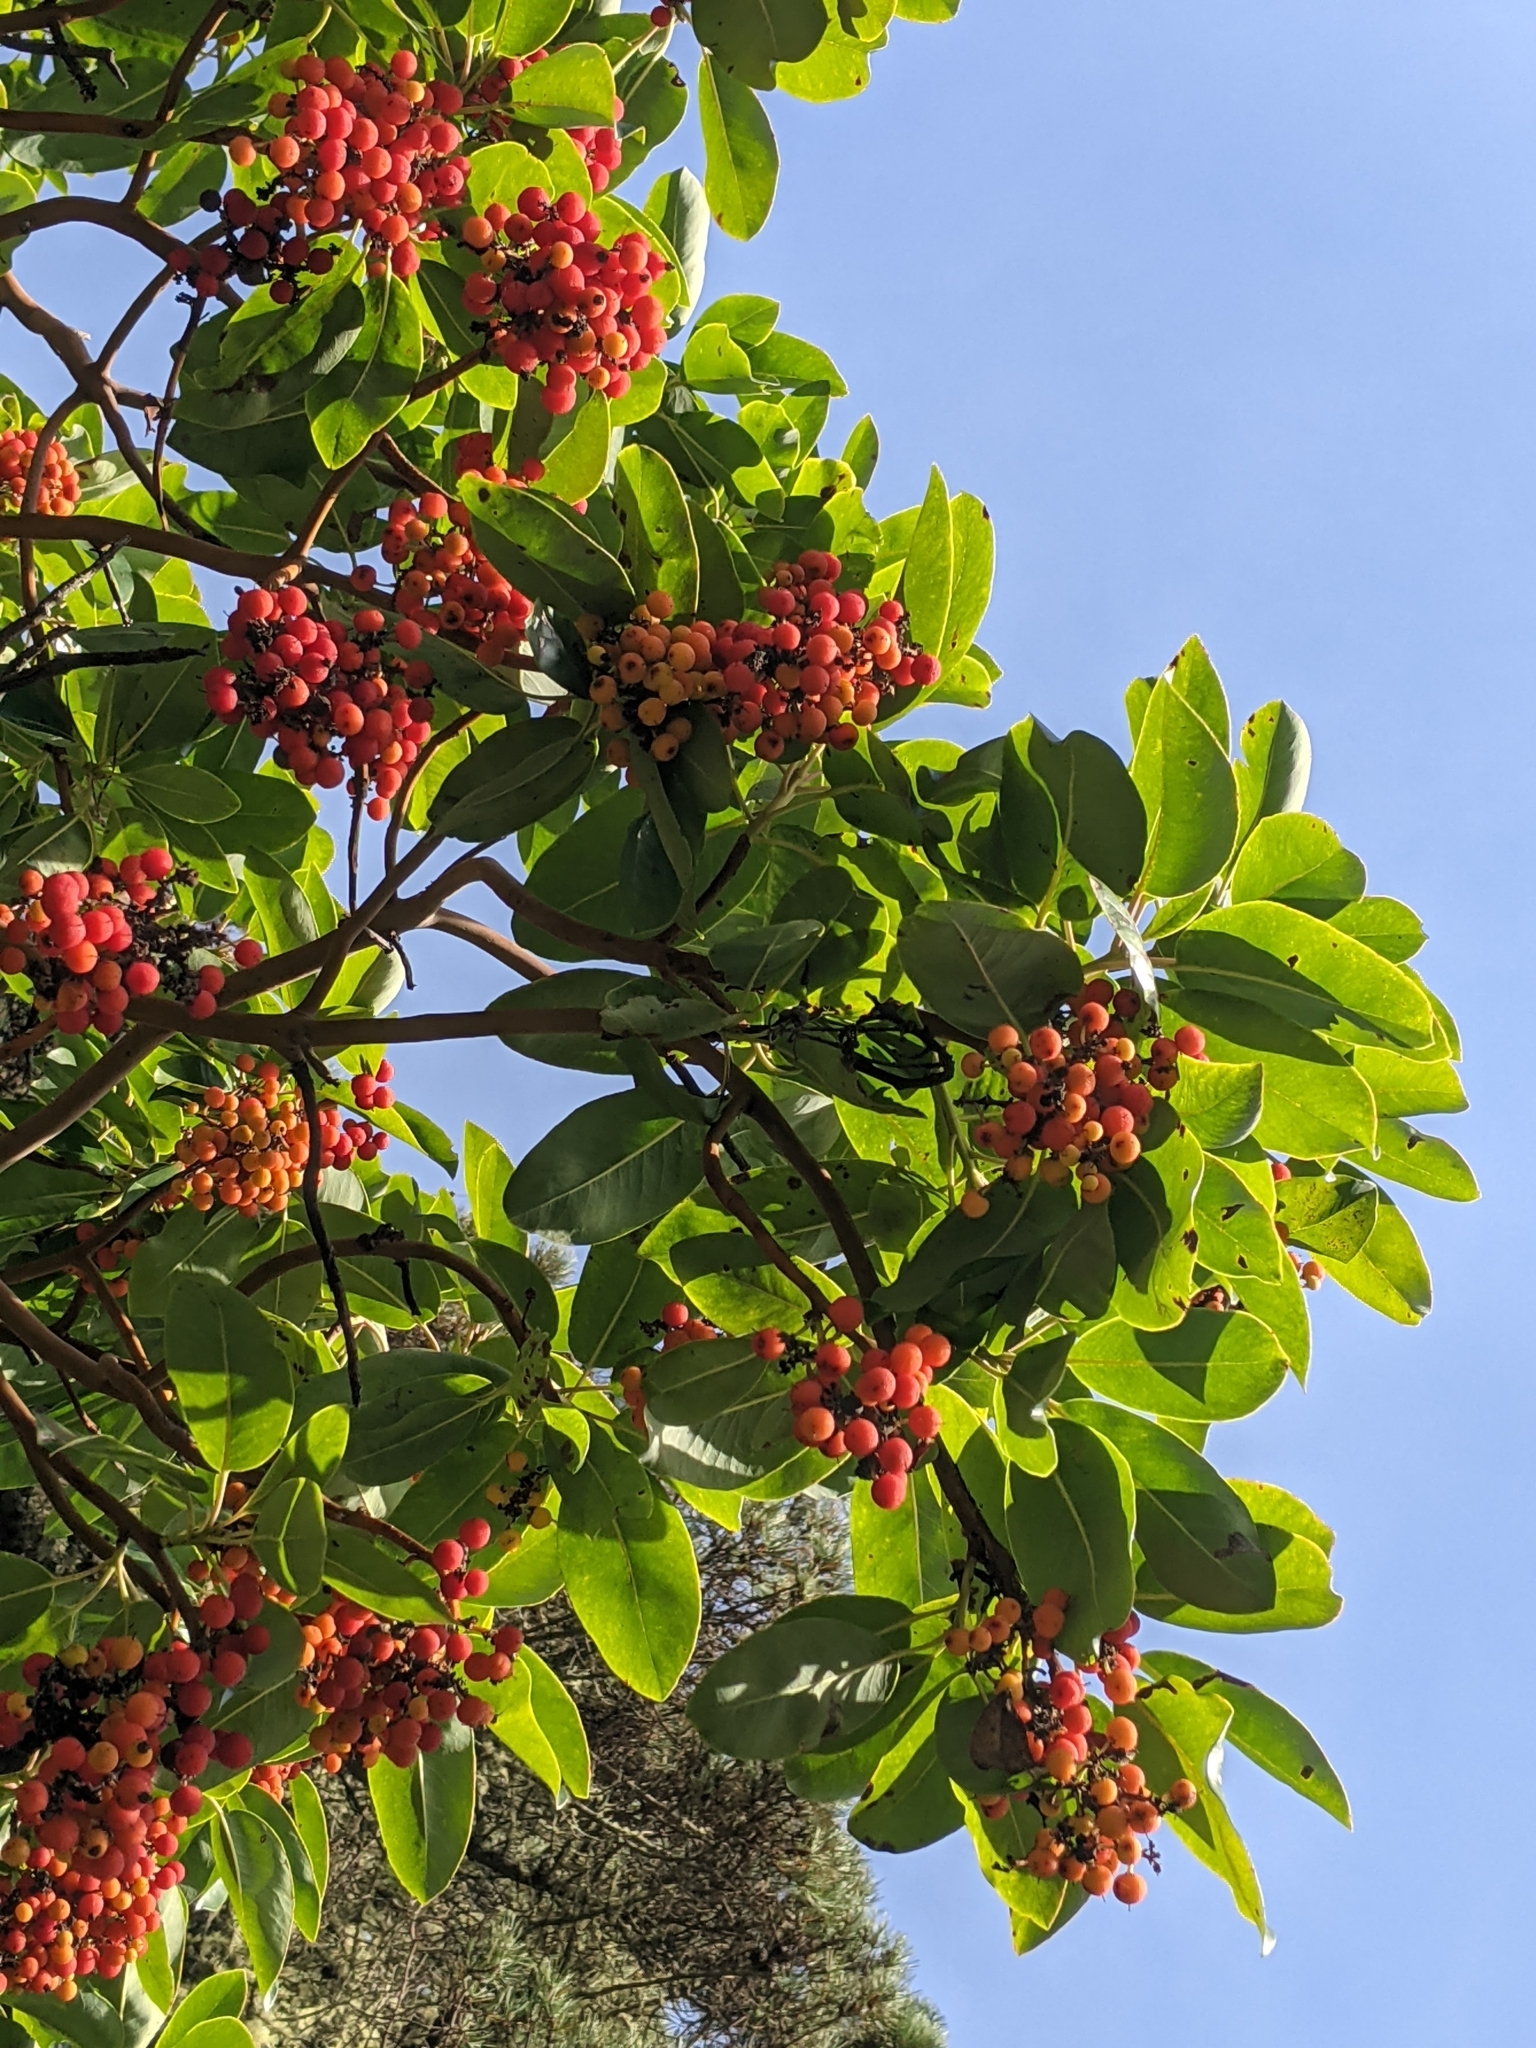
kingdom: Plantae
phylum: Tracheophyta
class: Magnoliopsida
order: Ericales
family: Ericaceae
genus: Arbutus
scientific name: Arbutus menziesii
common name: Pacific madrone
